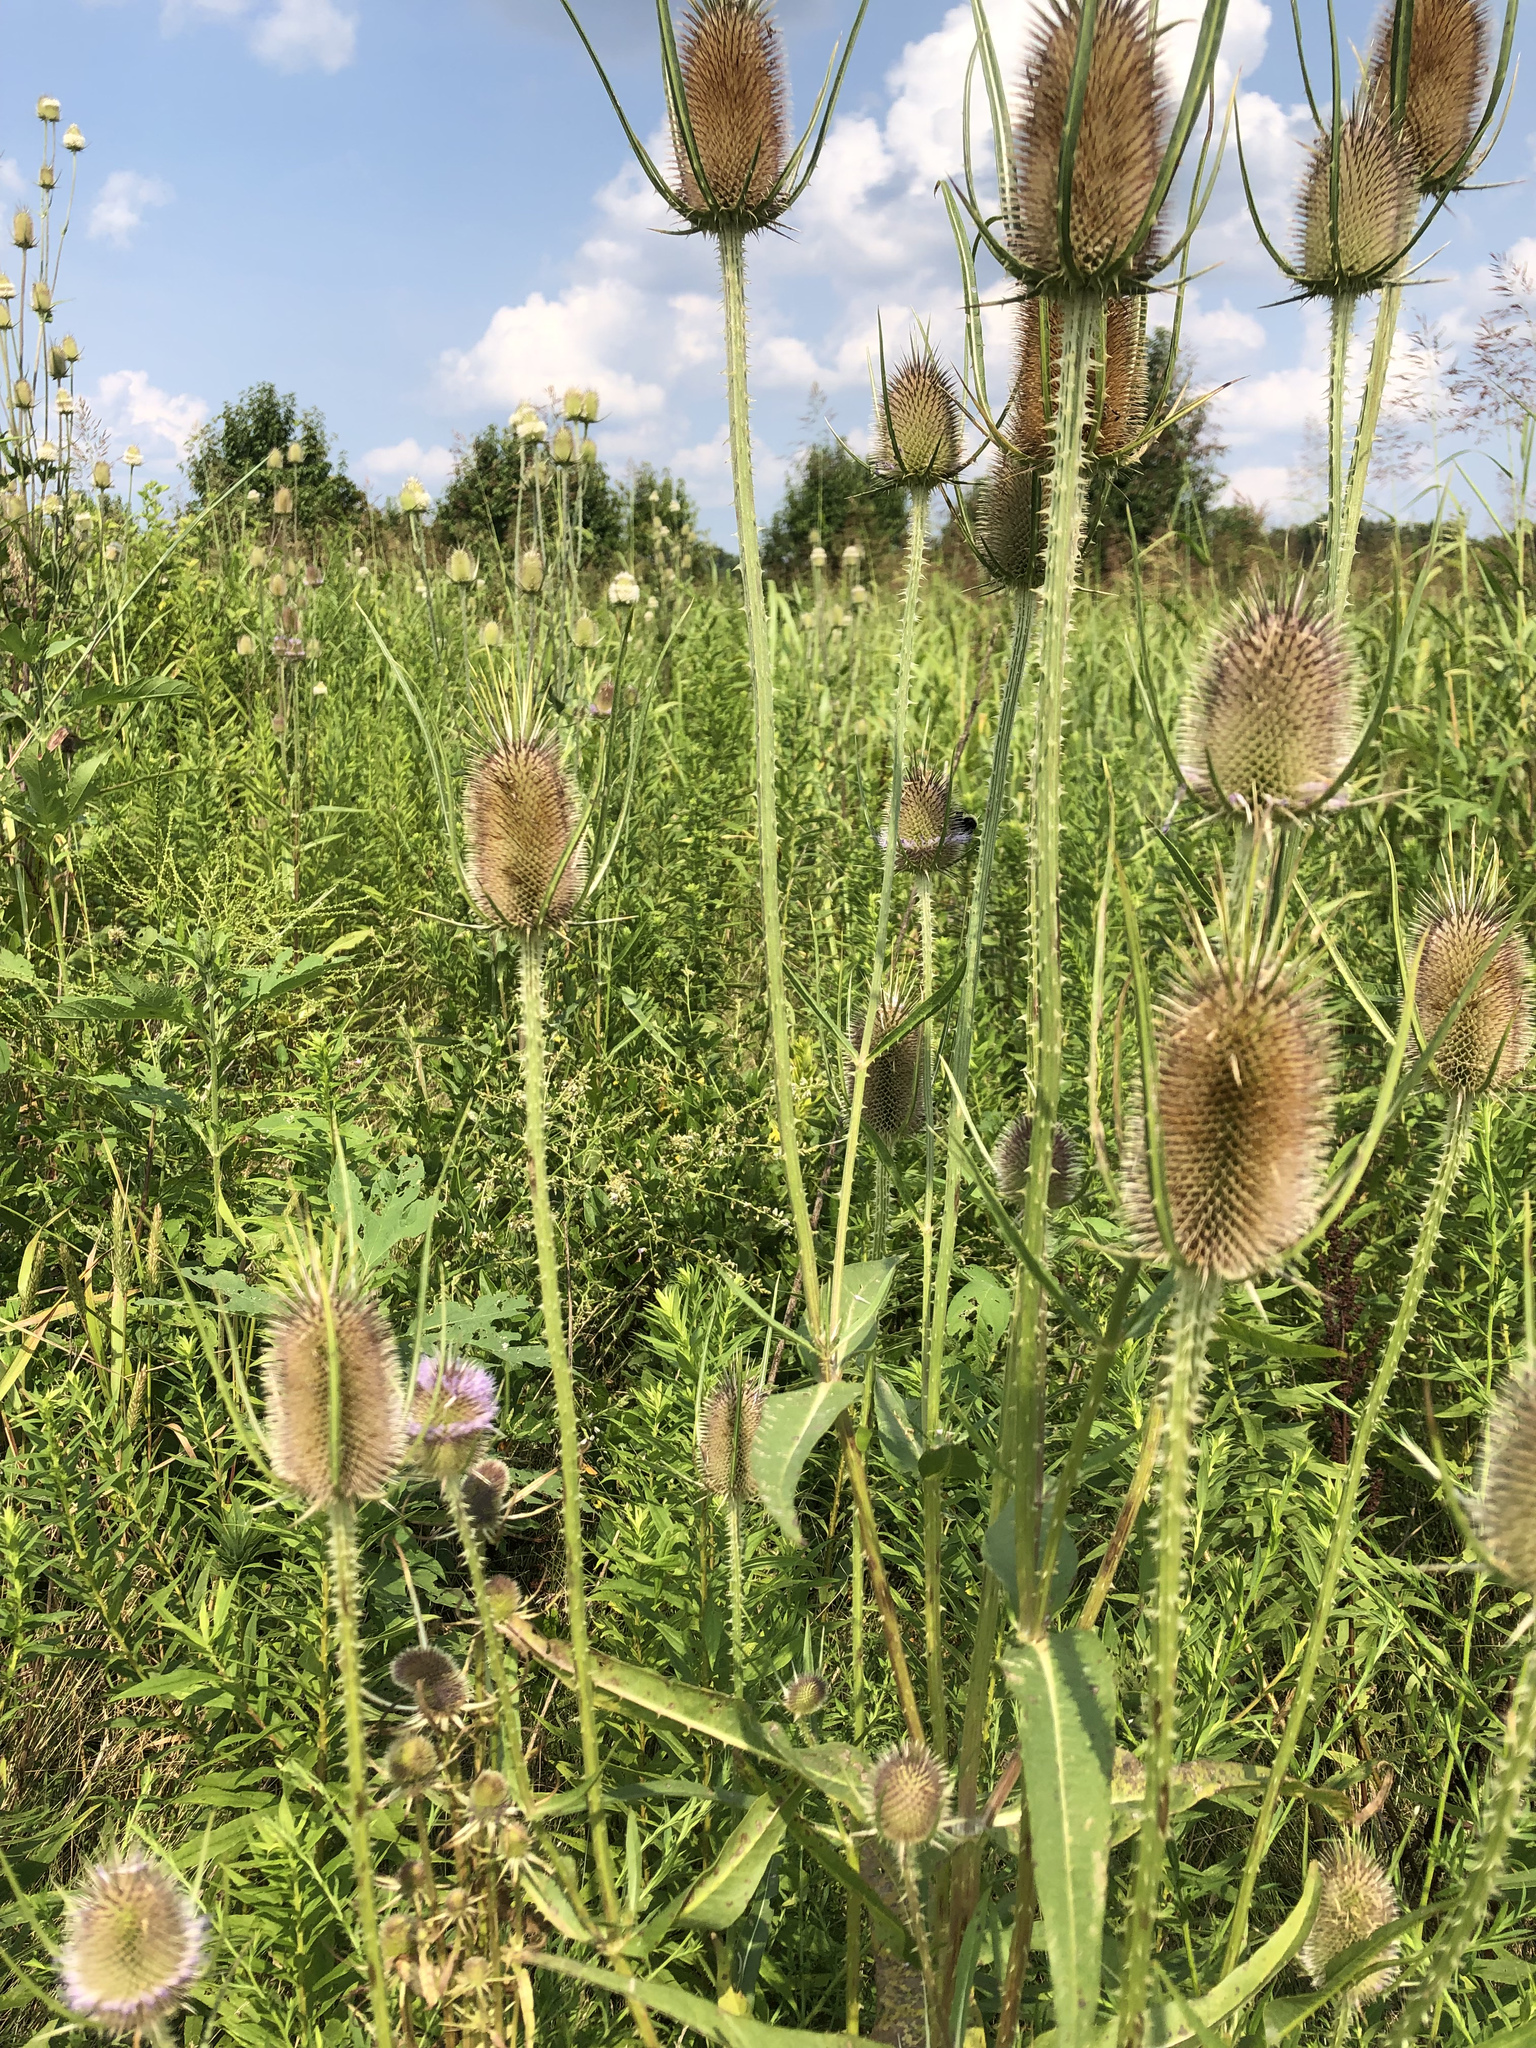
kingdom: Plantae
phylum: Tracheophyta
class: Magnoliopsida
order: Dipsacales
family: Caprifoliaceae
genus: Dipsacus
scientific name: Dipsacus fullonum
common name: Teasel
